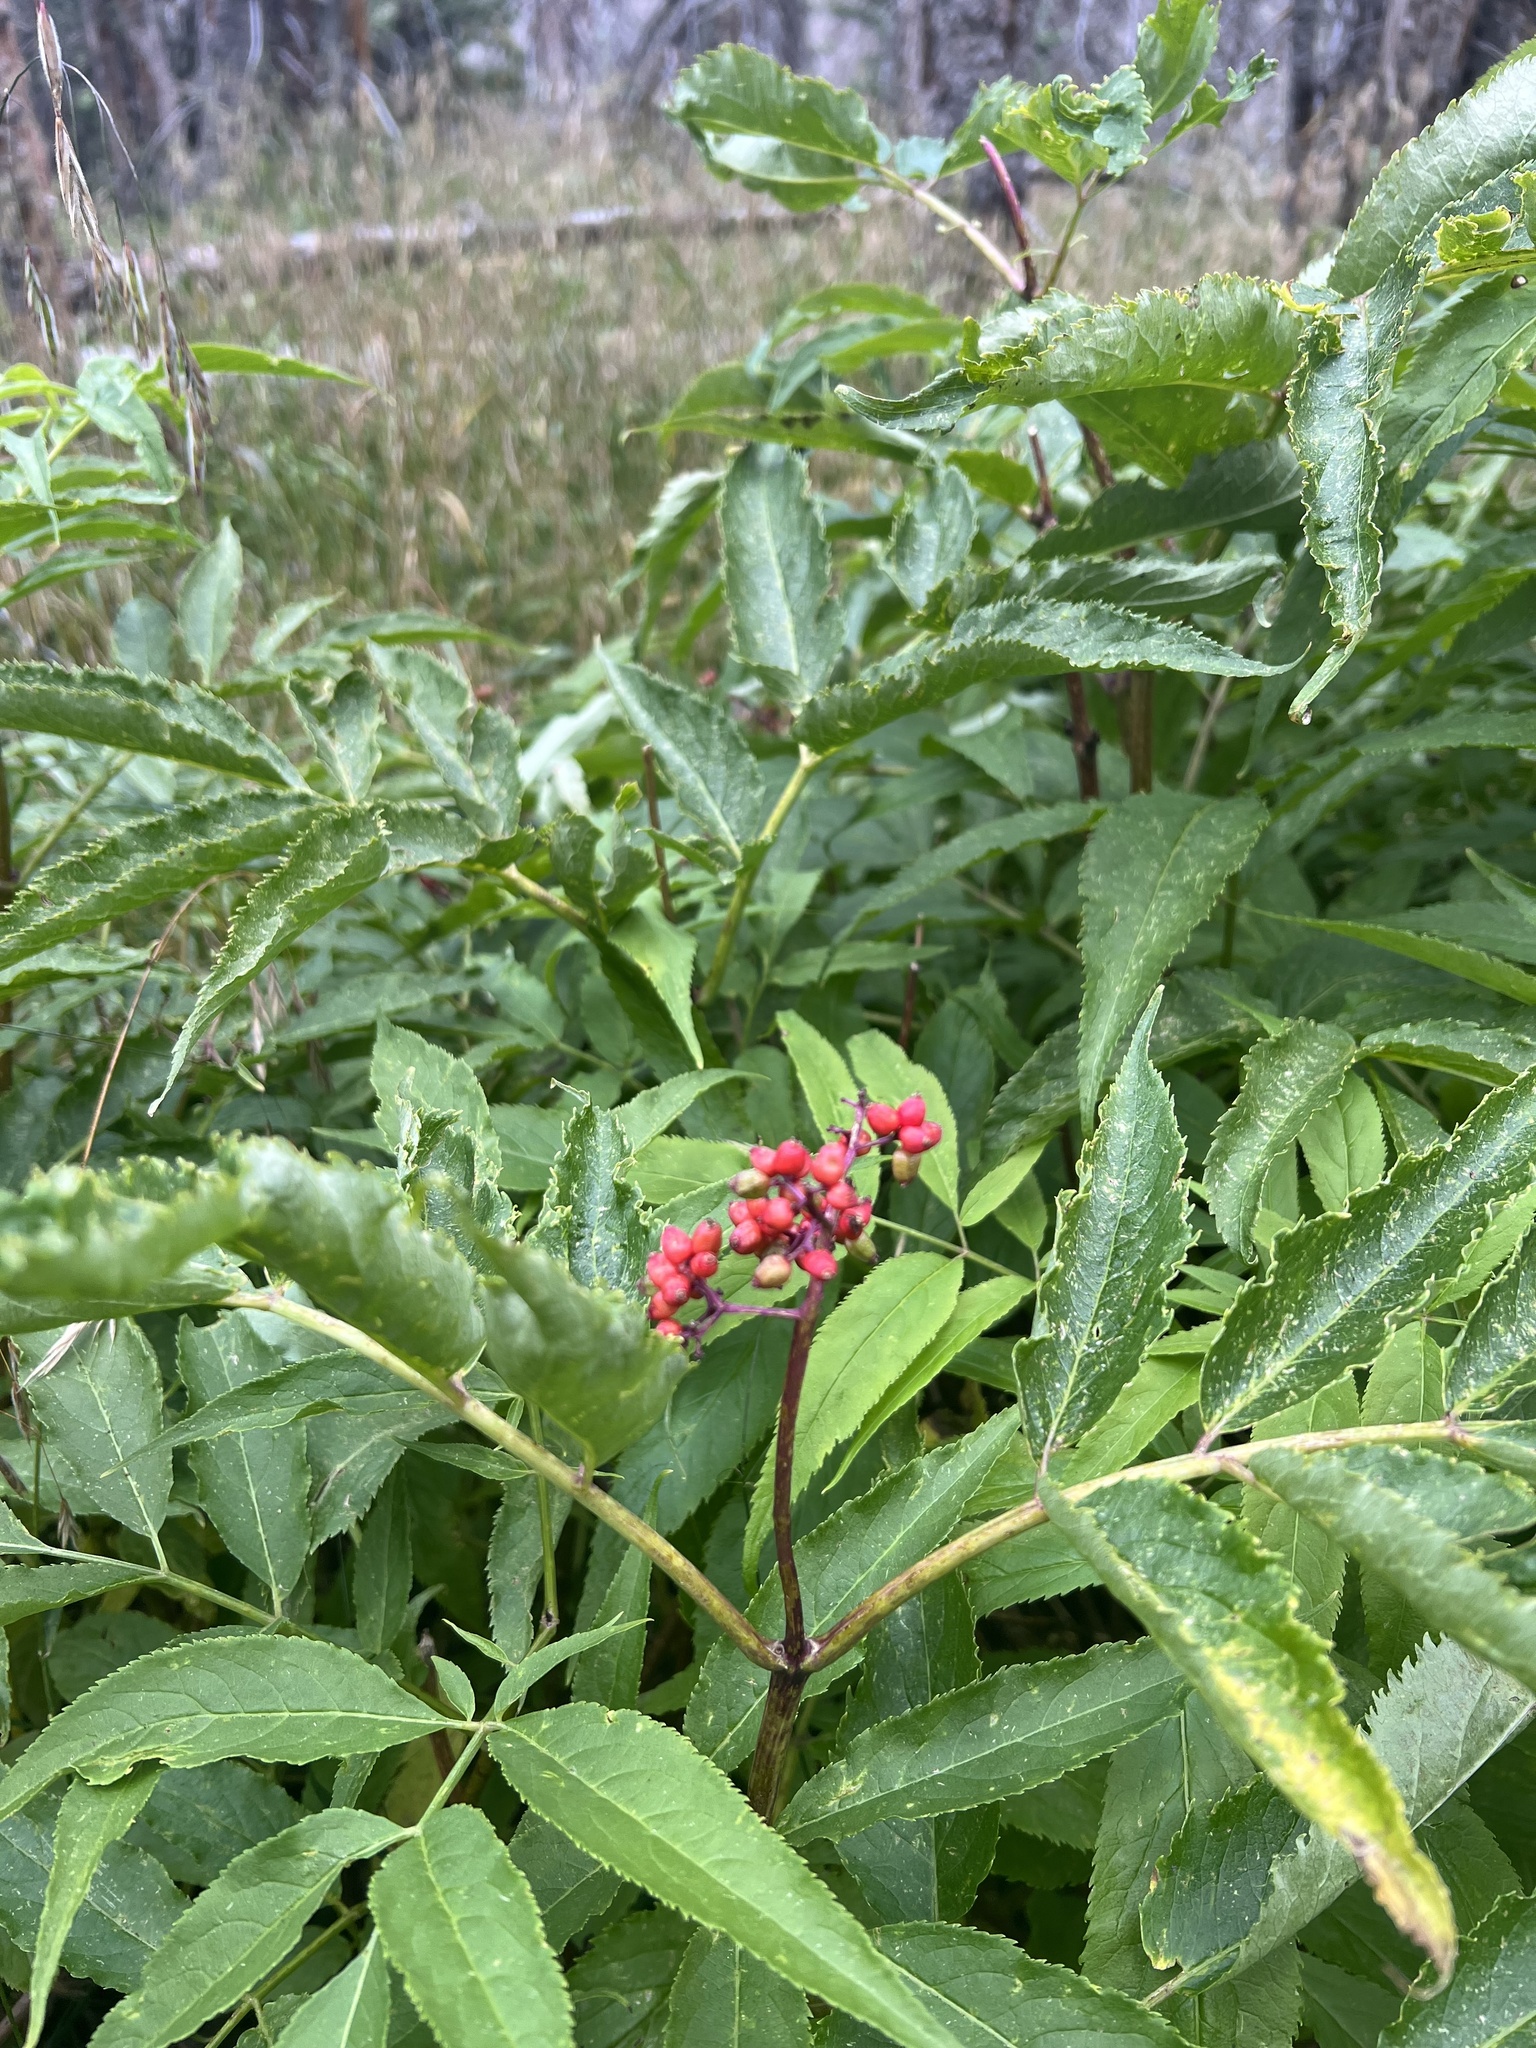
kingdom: Plantae
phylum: Tracheophyta
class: Magnoliopsida
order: Dipsacales
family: Viburnaceae
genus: Sambucus
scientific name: Sambucus racemosa
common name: Red-berried elder
